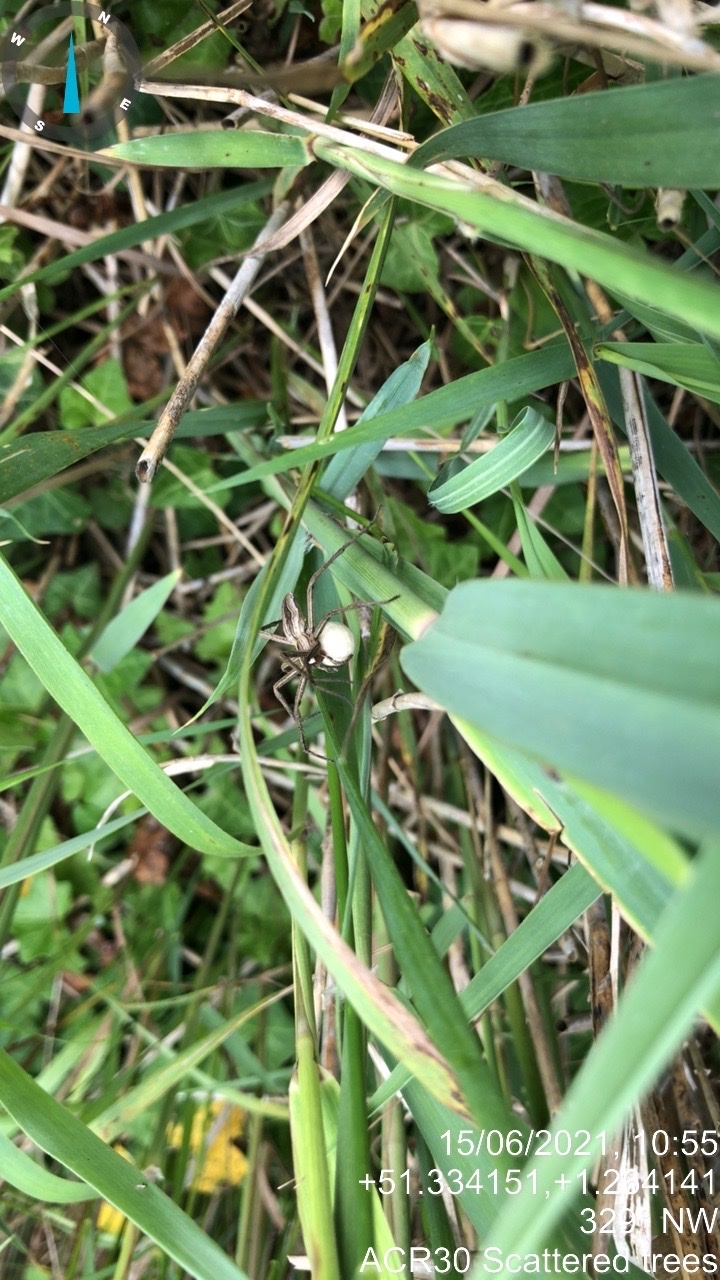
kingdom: Animalia
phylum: Arthropoda
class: Arachnida
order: Araneae
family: Pisauridae
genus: Pisaura
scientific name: Pisaura mirabilis
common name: Tent spider
